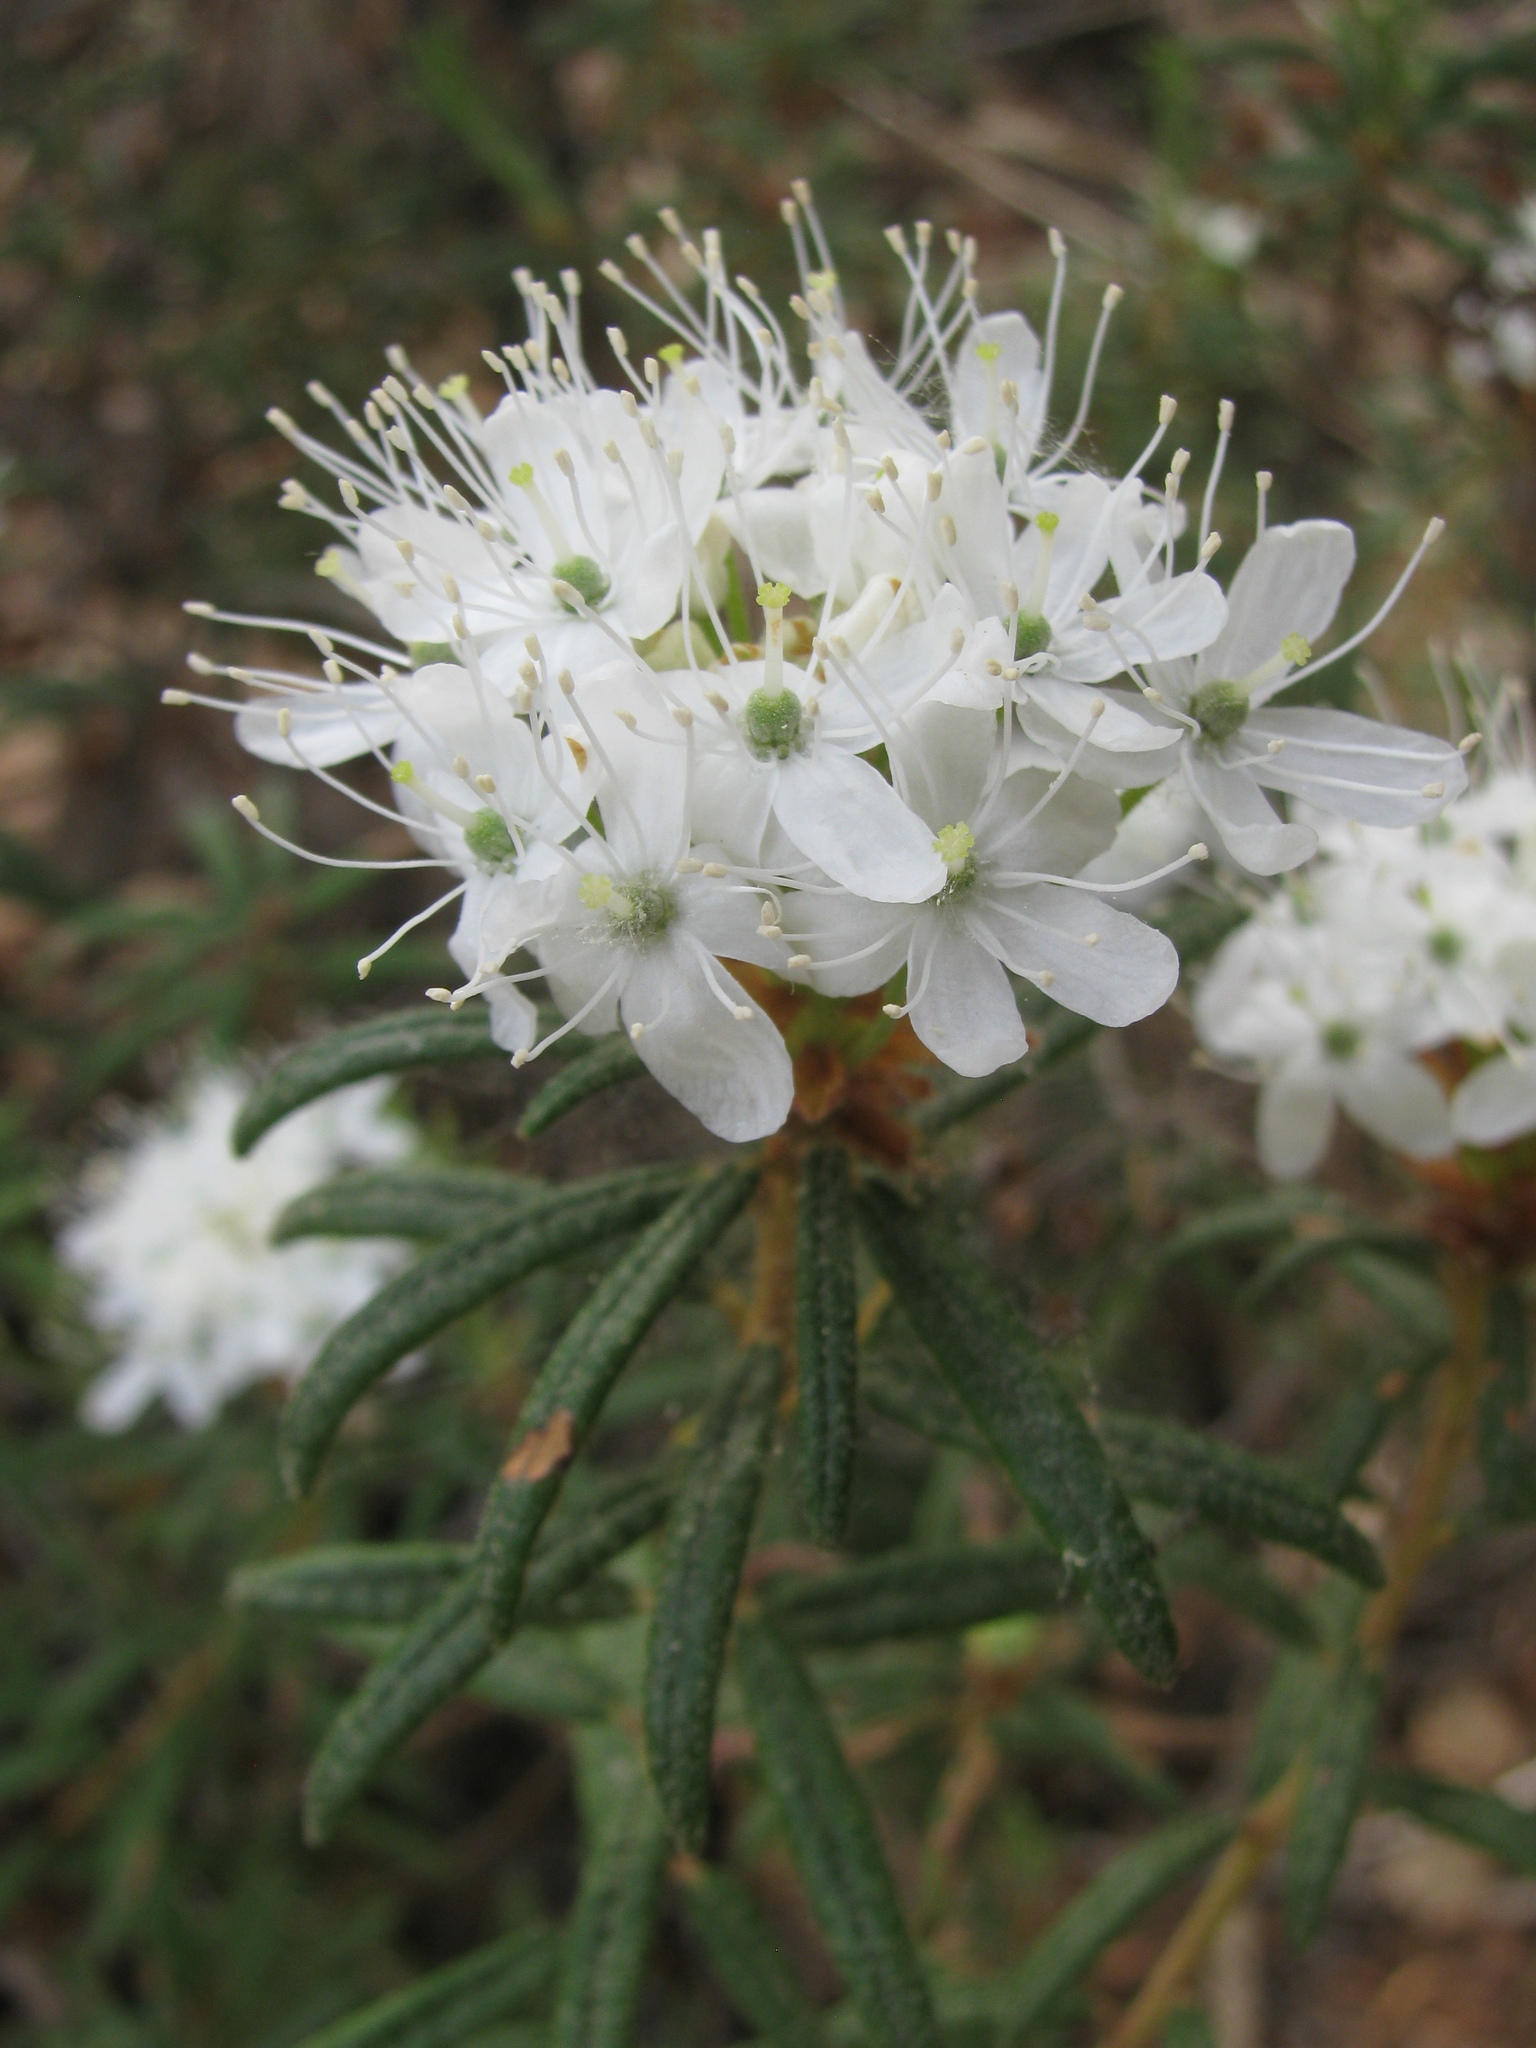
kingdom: Plantae
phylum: Tracheophyta
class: Magnoliopsida
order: Ericales
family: Ericaceae
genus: Rhododendron
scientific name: Rhododendron tomentosum
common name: Marsh labrador tea
